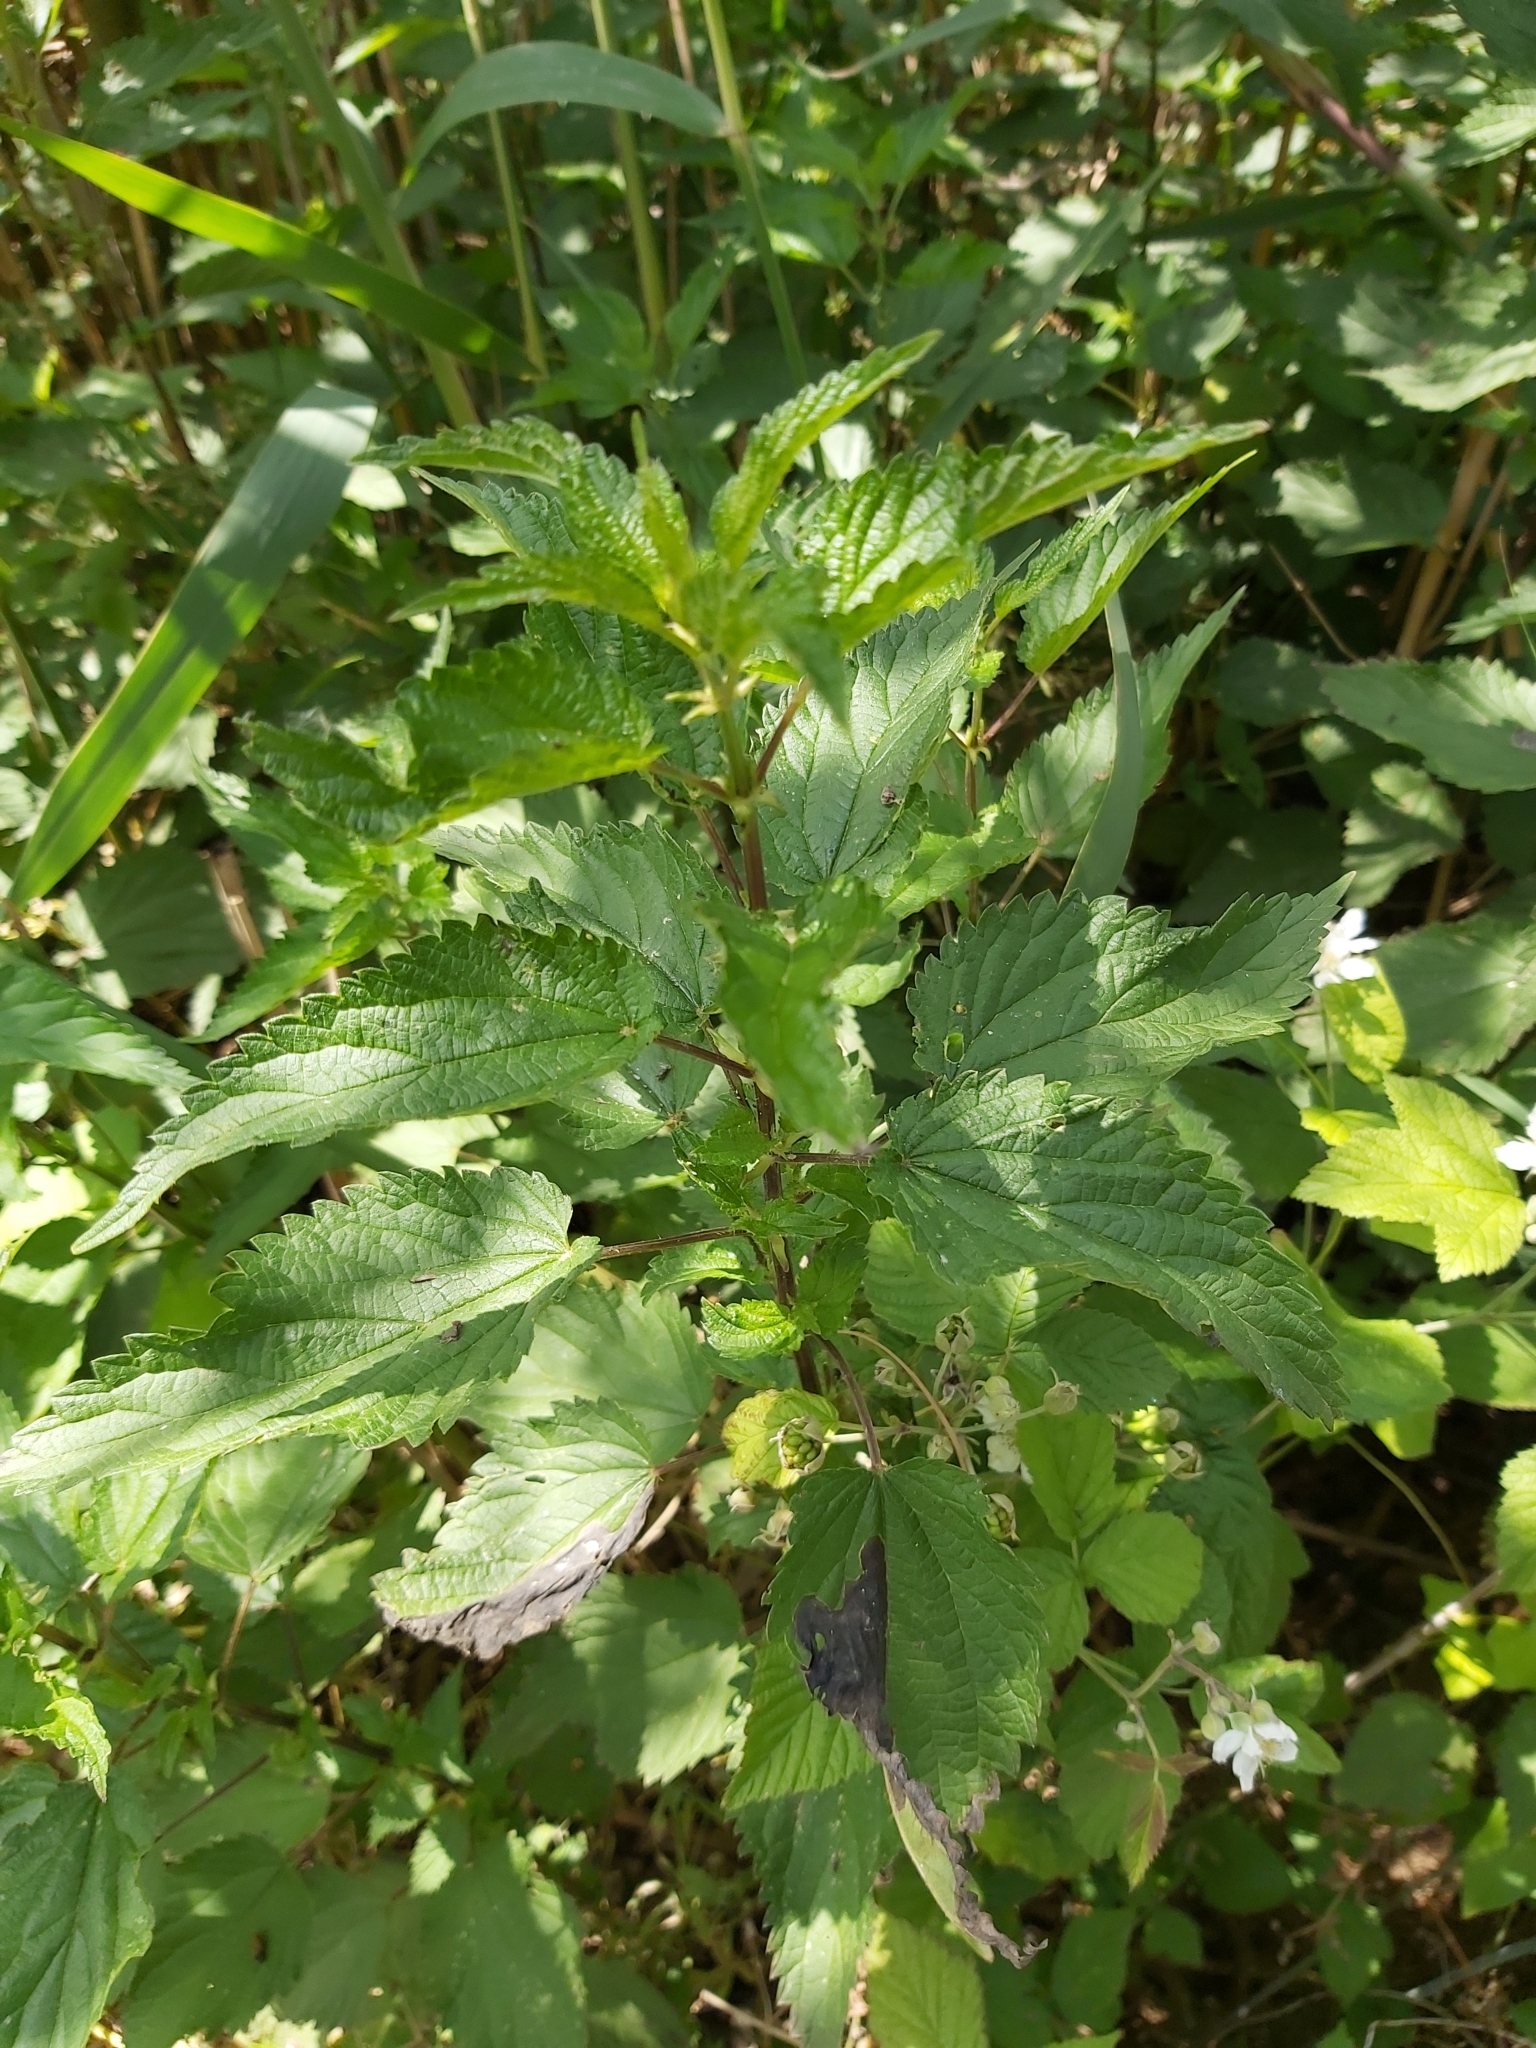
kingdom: Plantae
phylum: Tracheophyta
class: Magnoliopsida
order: Rosales
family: Urticaceae
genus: Urtica
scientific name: Urtica dioica
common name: Common nettle
